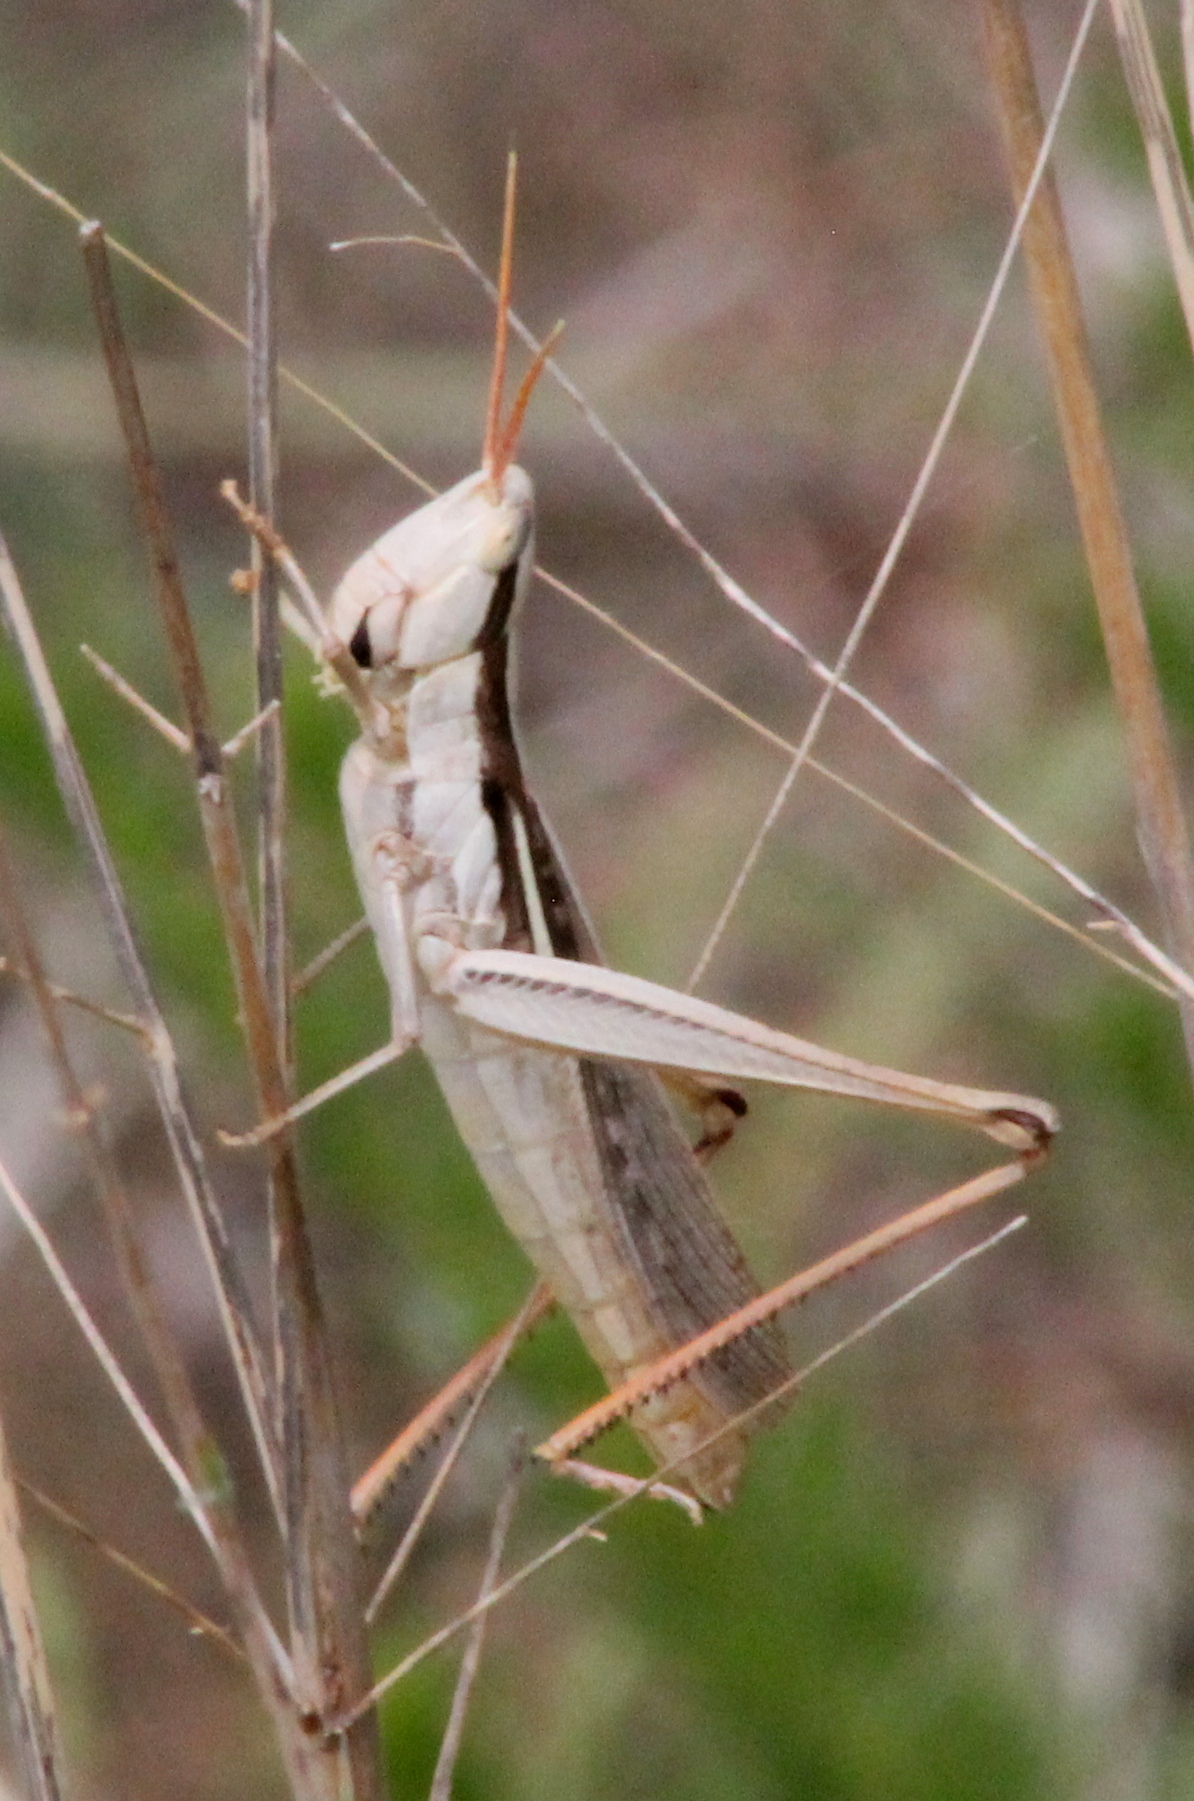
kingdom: Animalia
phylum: Arthropoda
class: Insecta
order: Orthoptera
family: Acrididae
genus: Mermiria
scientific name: Mermiria bivittata
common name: Two-striped mermiria grasshopper
